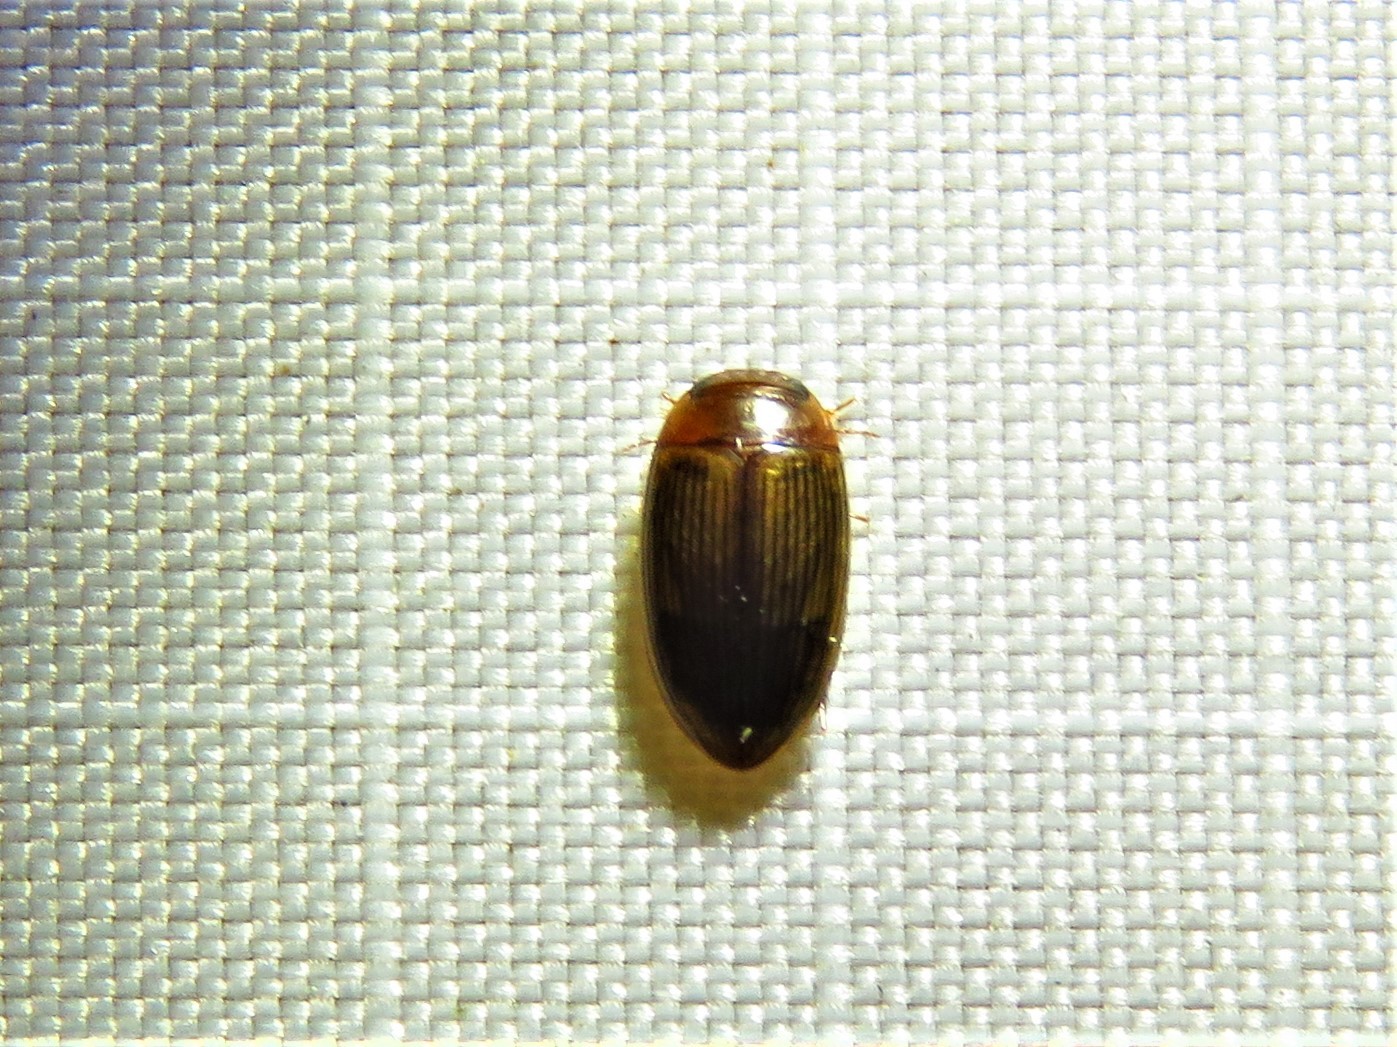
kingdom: Animalia
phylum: Arthropoda
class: Insecta
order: Coleoptera
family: Dytiscidae
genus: Copelatus
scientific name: Copelatus glyphicus
